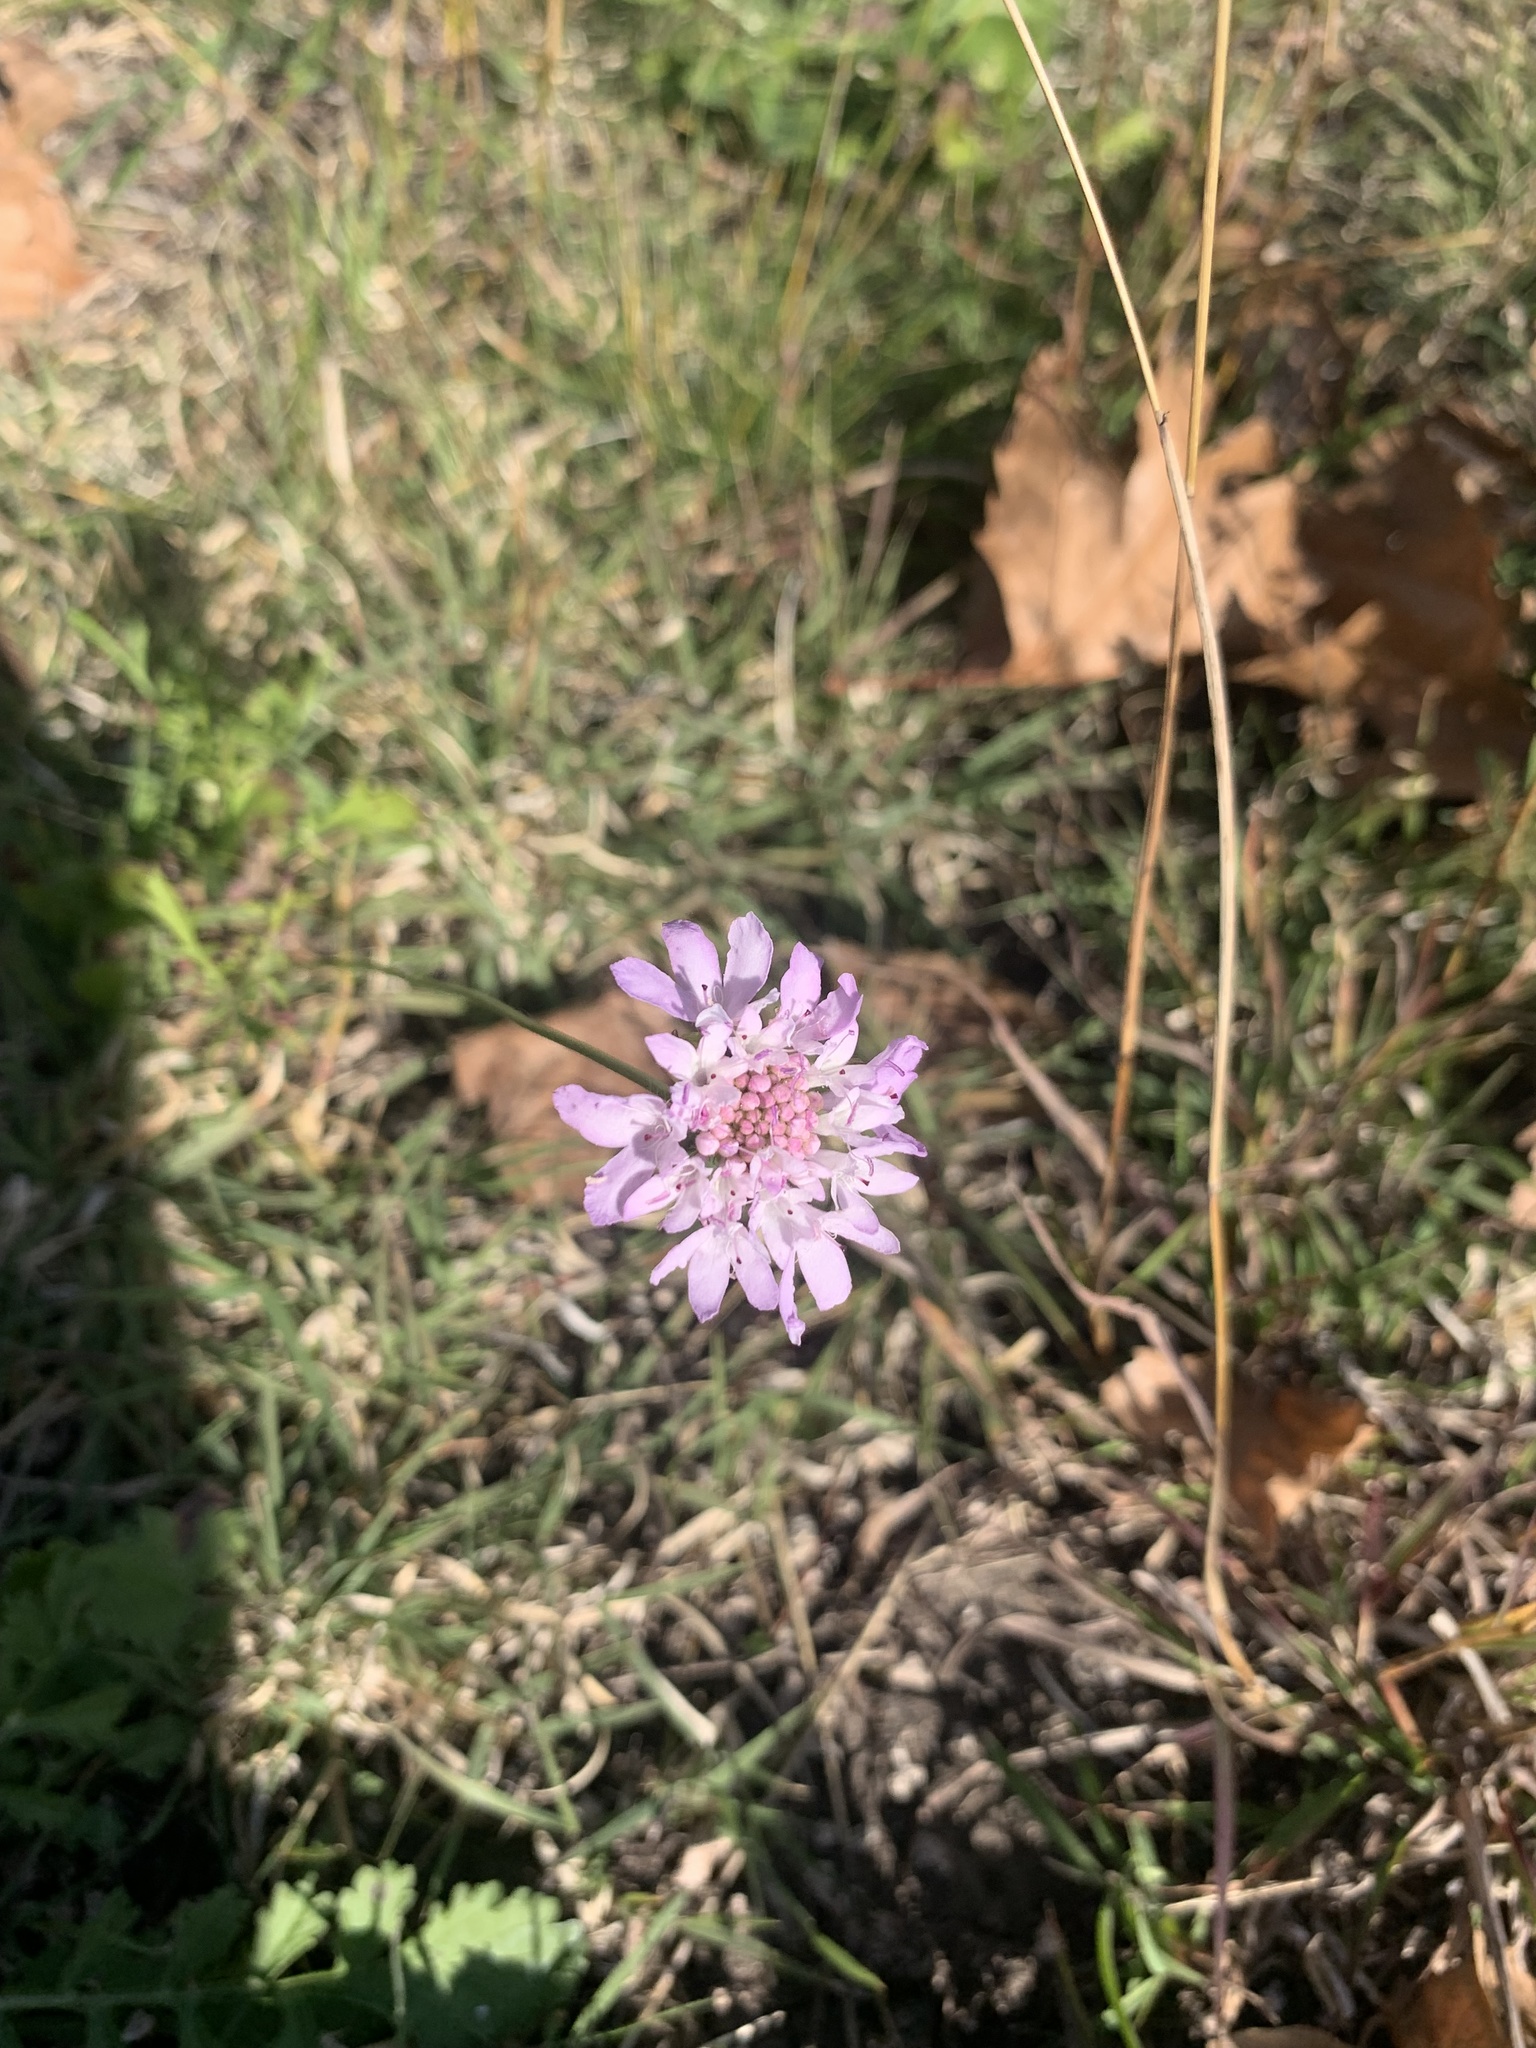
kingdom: Plantae
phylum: Tracheophyta
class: Magnoliopsida
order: Dipsacales
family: Caprifoliaceae
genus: Sixalix
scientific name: Sixalix atropurpurea
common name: Sweet scabious
